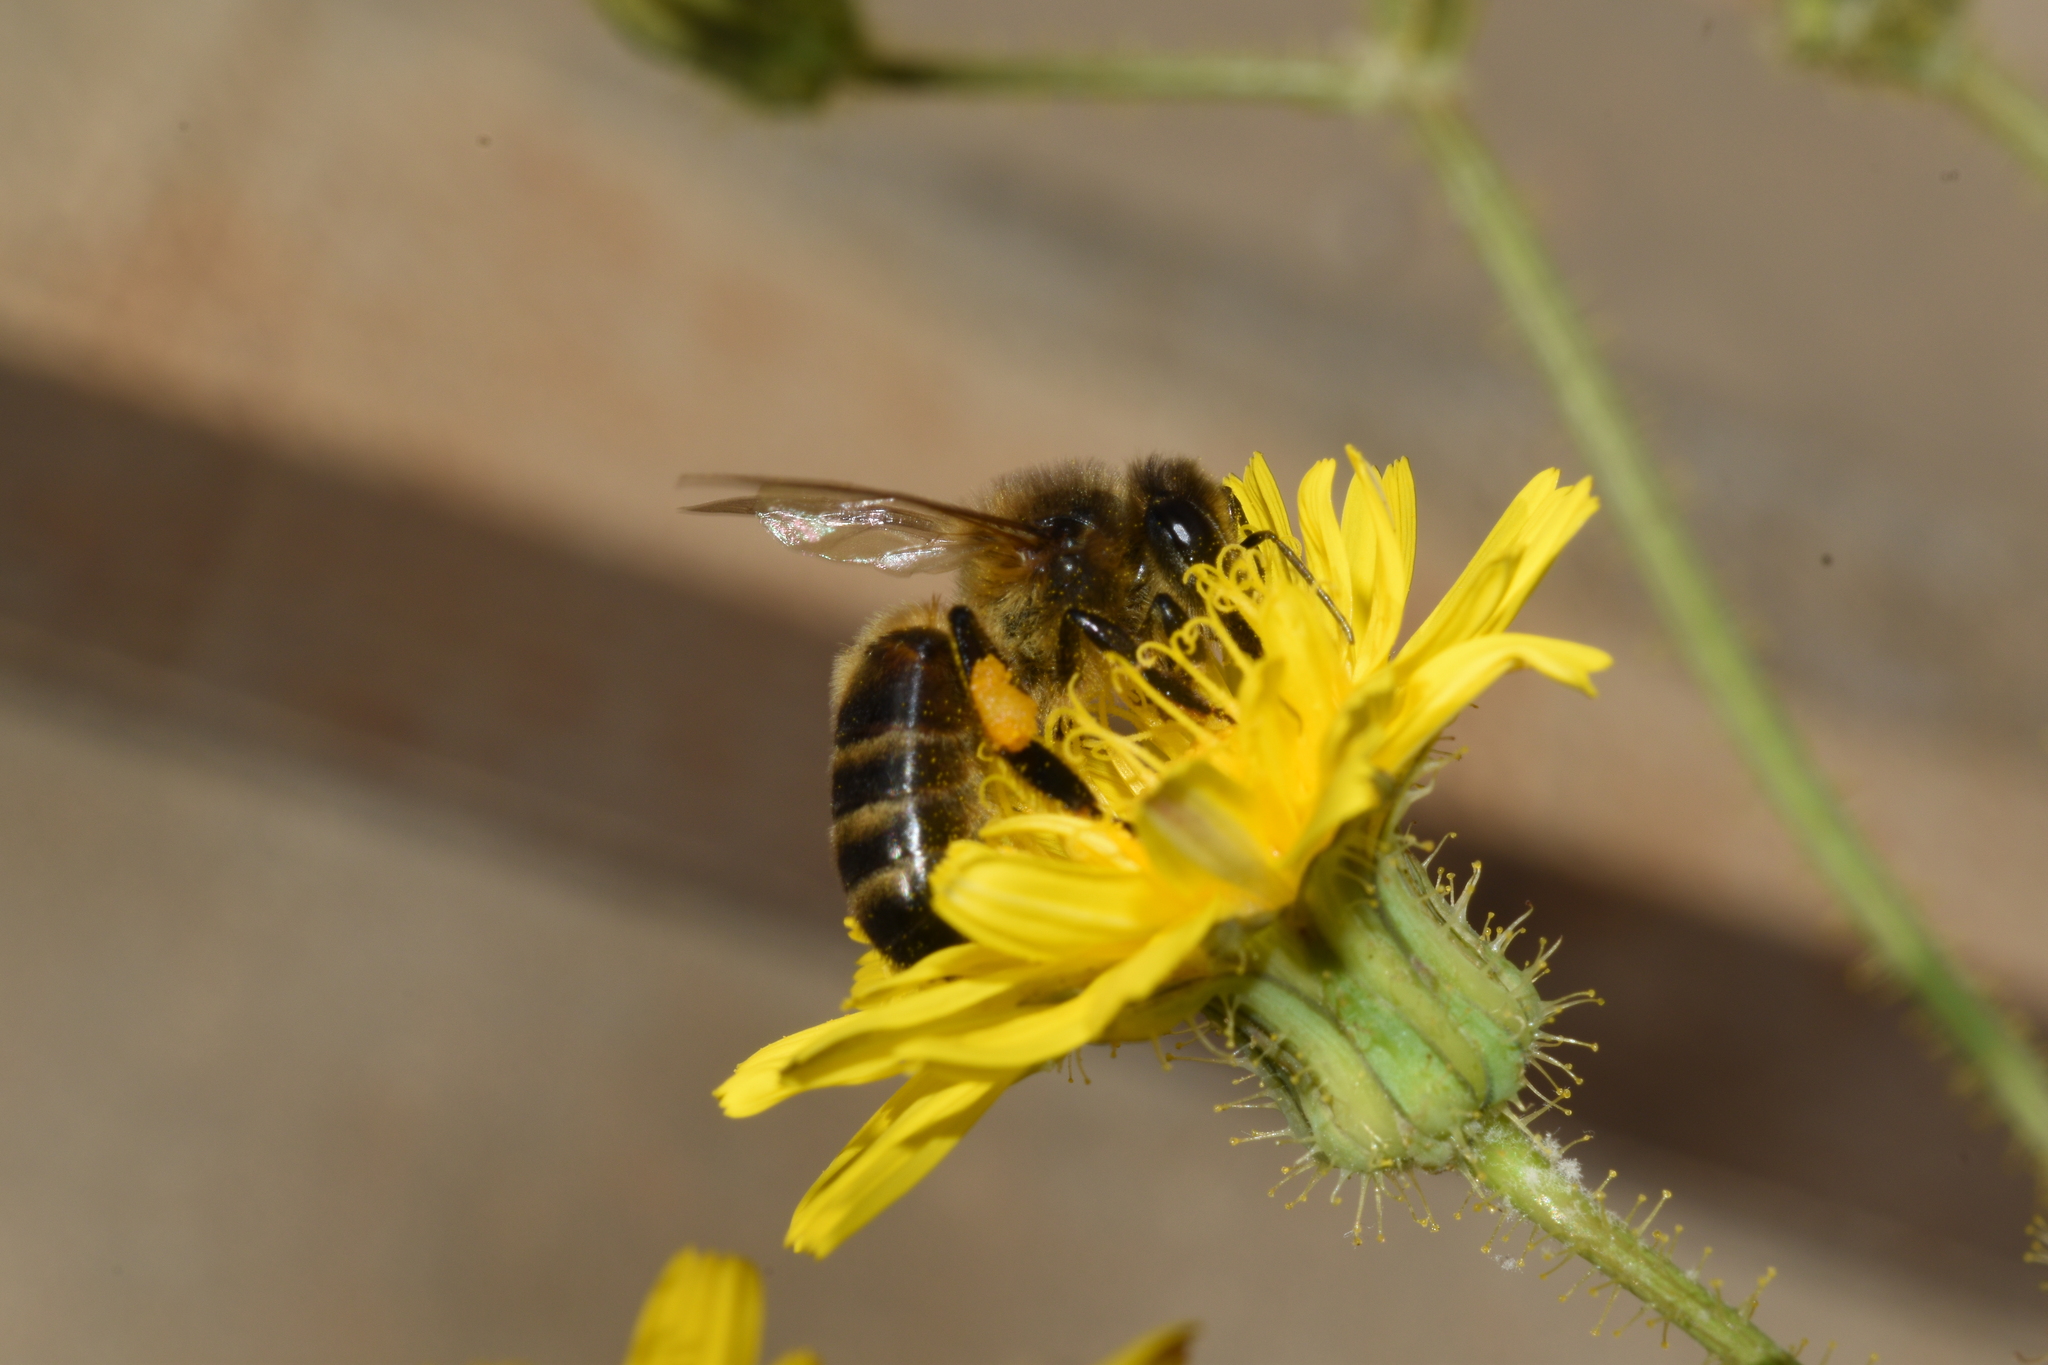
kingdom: Animalia
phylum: Arthropoda
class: Insecta
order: Hymenoptera
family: Apidae
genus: Apis
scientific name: Apis mellifera
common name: Honey bee
